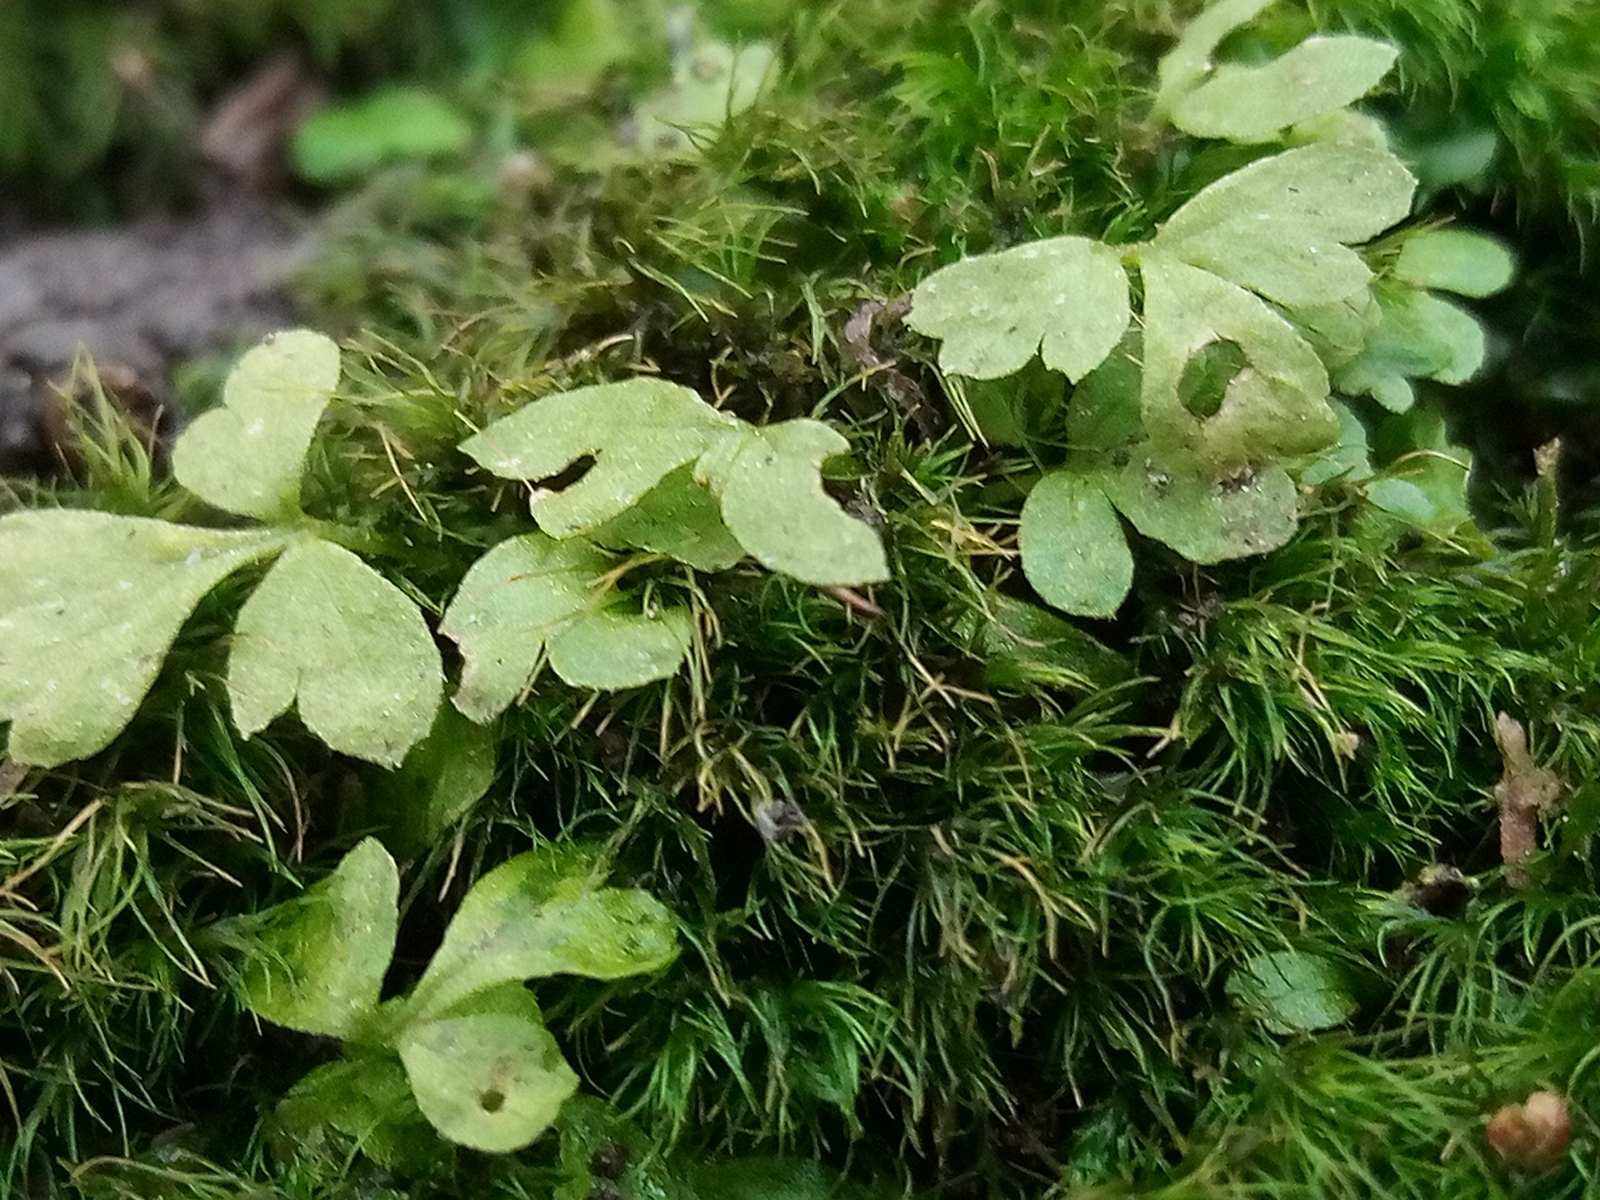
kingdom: Plantae
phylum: Tracheophyta
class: Polypodiopsida
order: Polypodiales
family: Dryopteridaceae
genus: Dryopteris
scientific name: Dryopteris carthusiana
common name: Narrow buckler-fern
